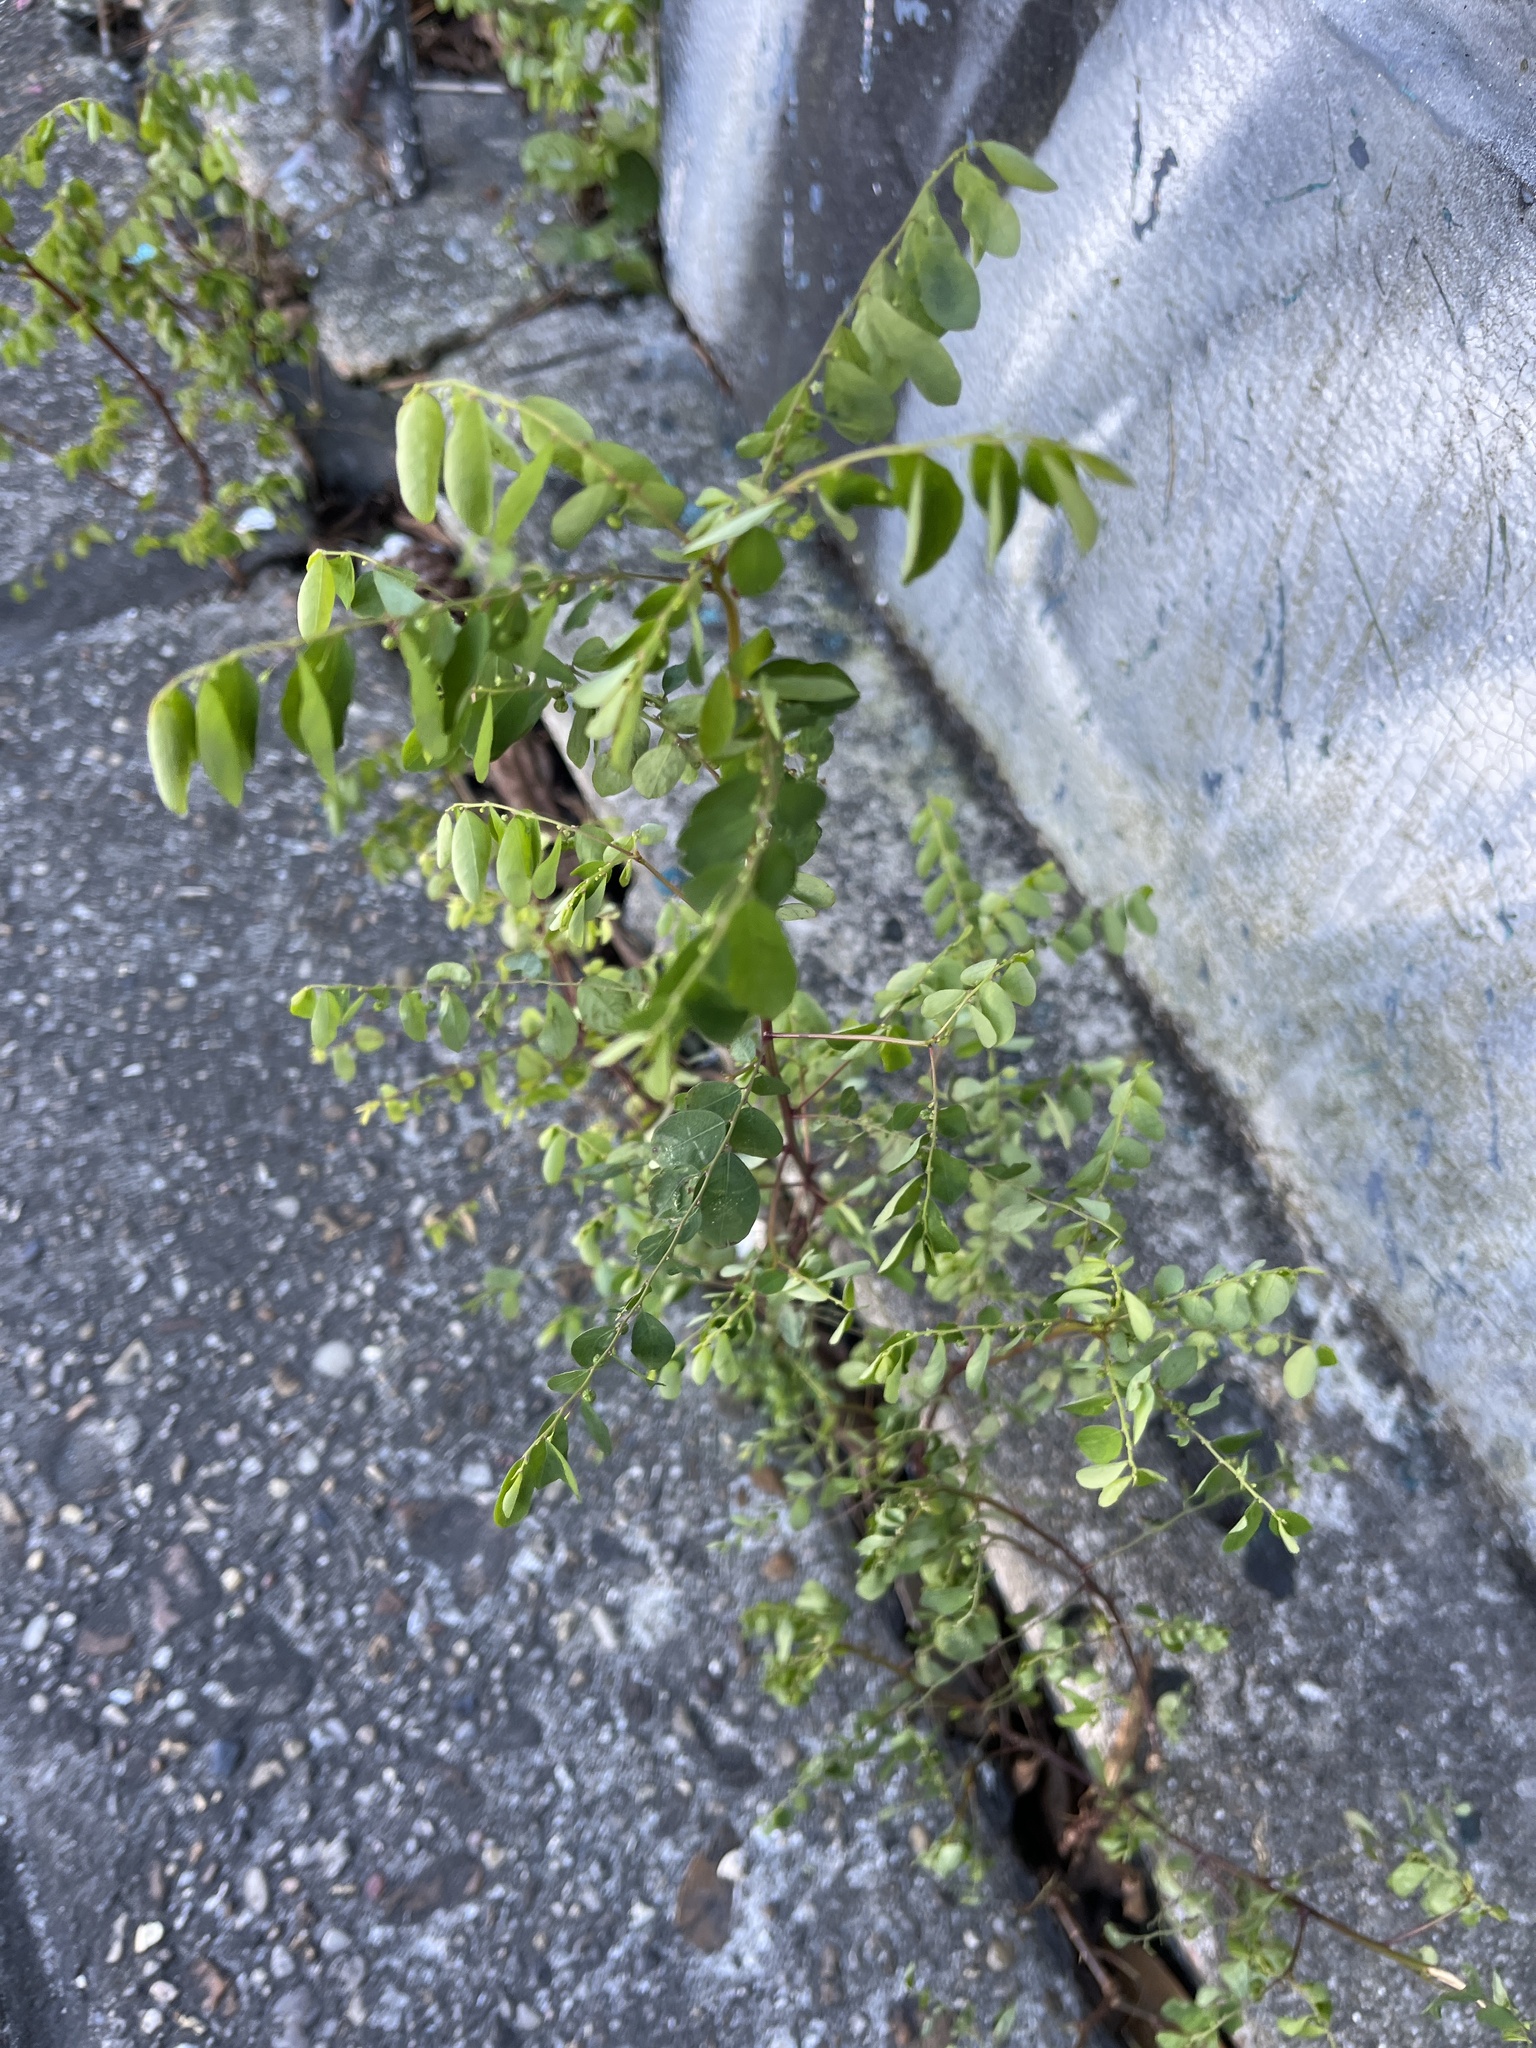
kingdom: Plantae
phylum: Tracheophyta
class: Magnoliopsida
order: Malpighiales
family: Phyllanthaceae
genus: Phyllanthus
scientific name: Phyllanthus tenellus
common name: Mascarene island leaf-flower
